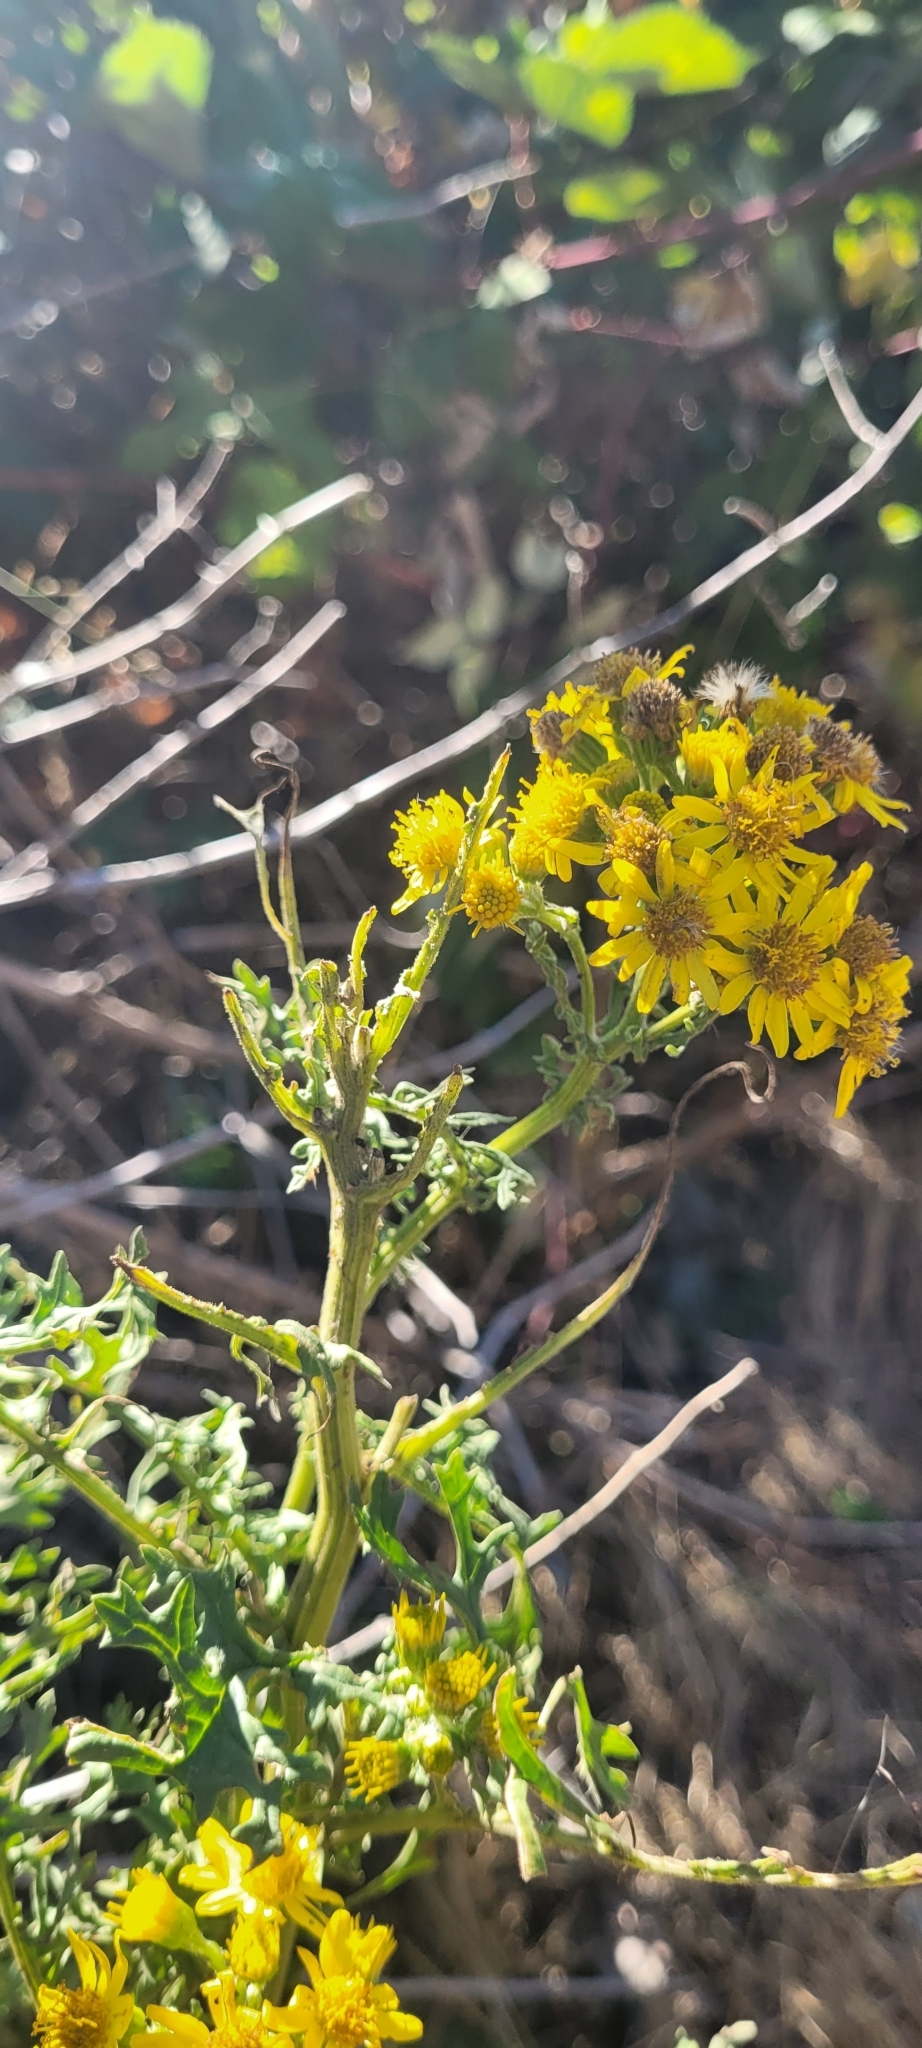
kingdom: Plantae
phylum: Tracheophyta
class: Magnoliopsida
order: Asterales
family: Asteraceae
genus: Jacobaea
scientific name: Jacobaea vulgaris
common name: Stinking willie
